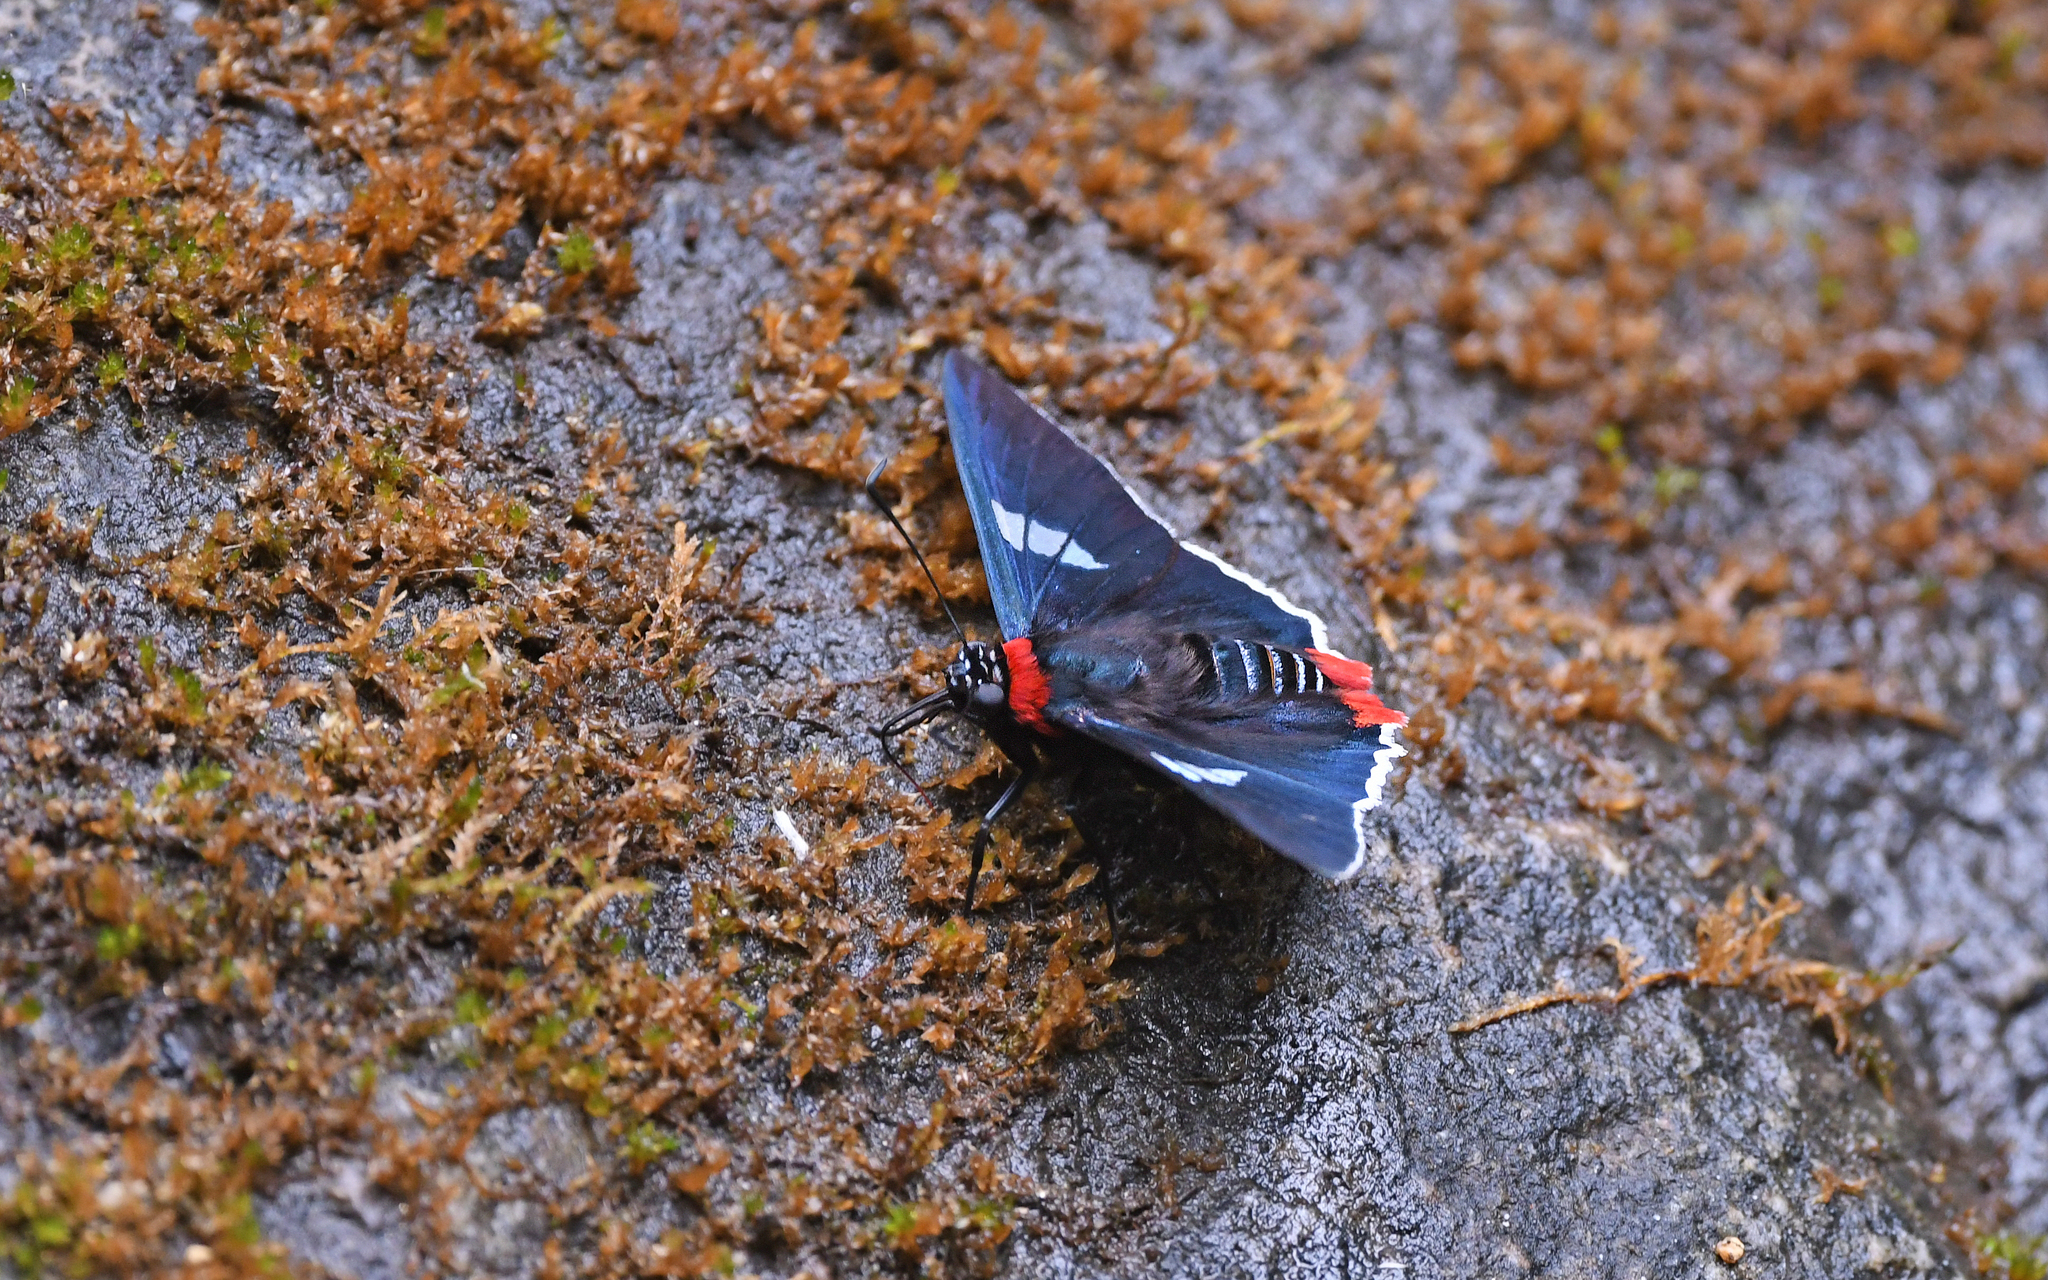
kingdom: Animalia
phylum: Arthropoda
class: Insecta
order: Lepidoptera
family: Hesperiidae
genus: Aspitha
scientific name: Aspitha agenoria
